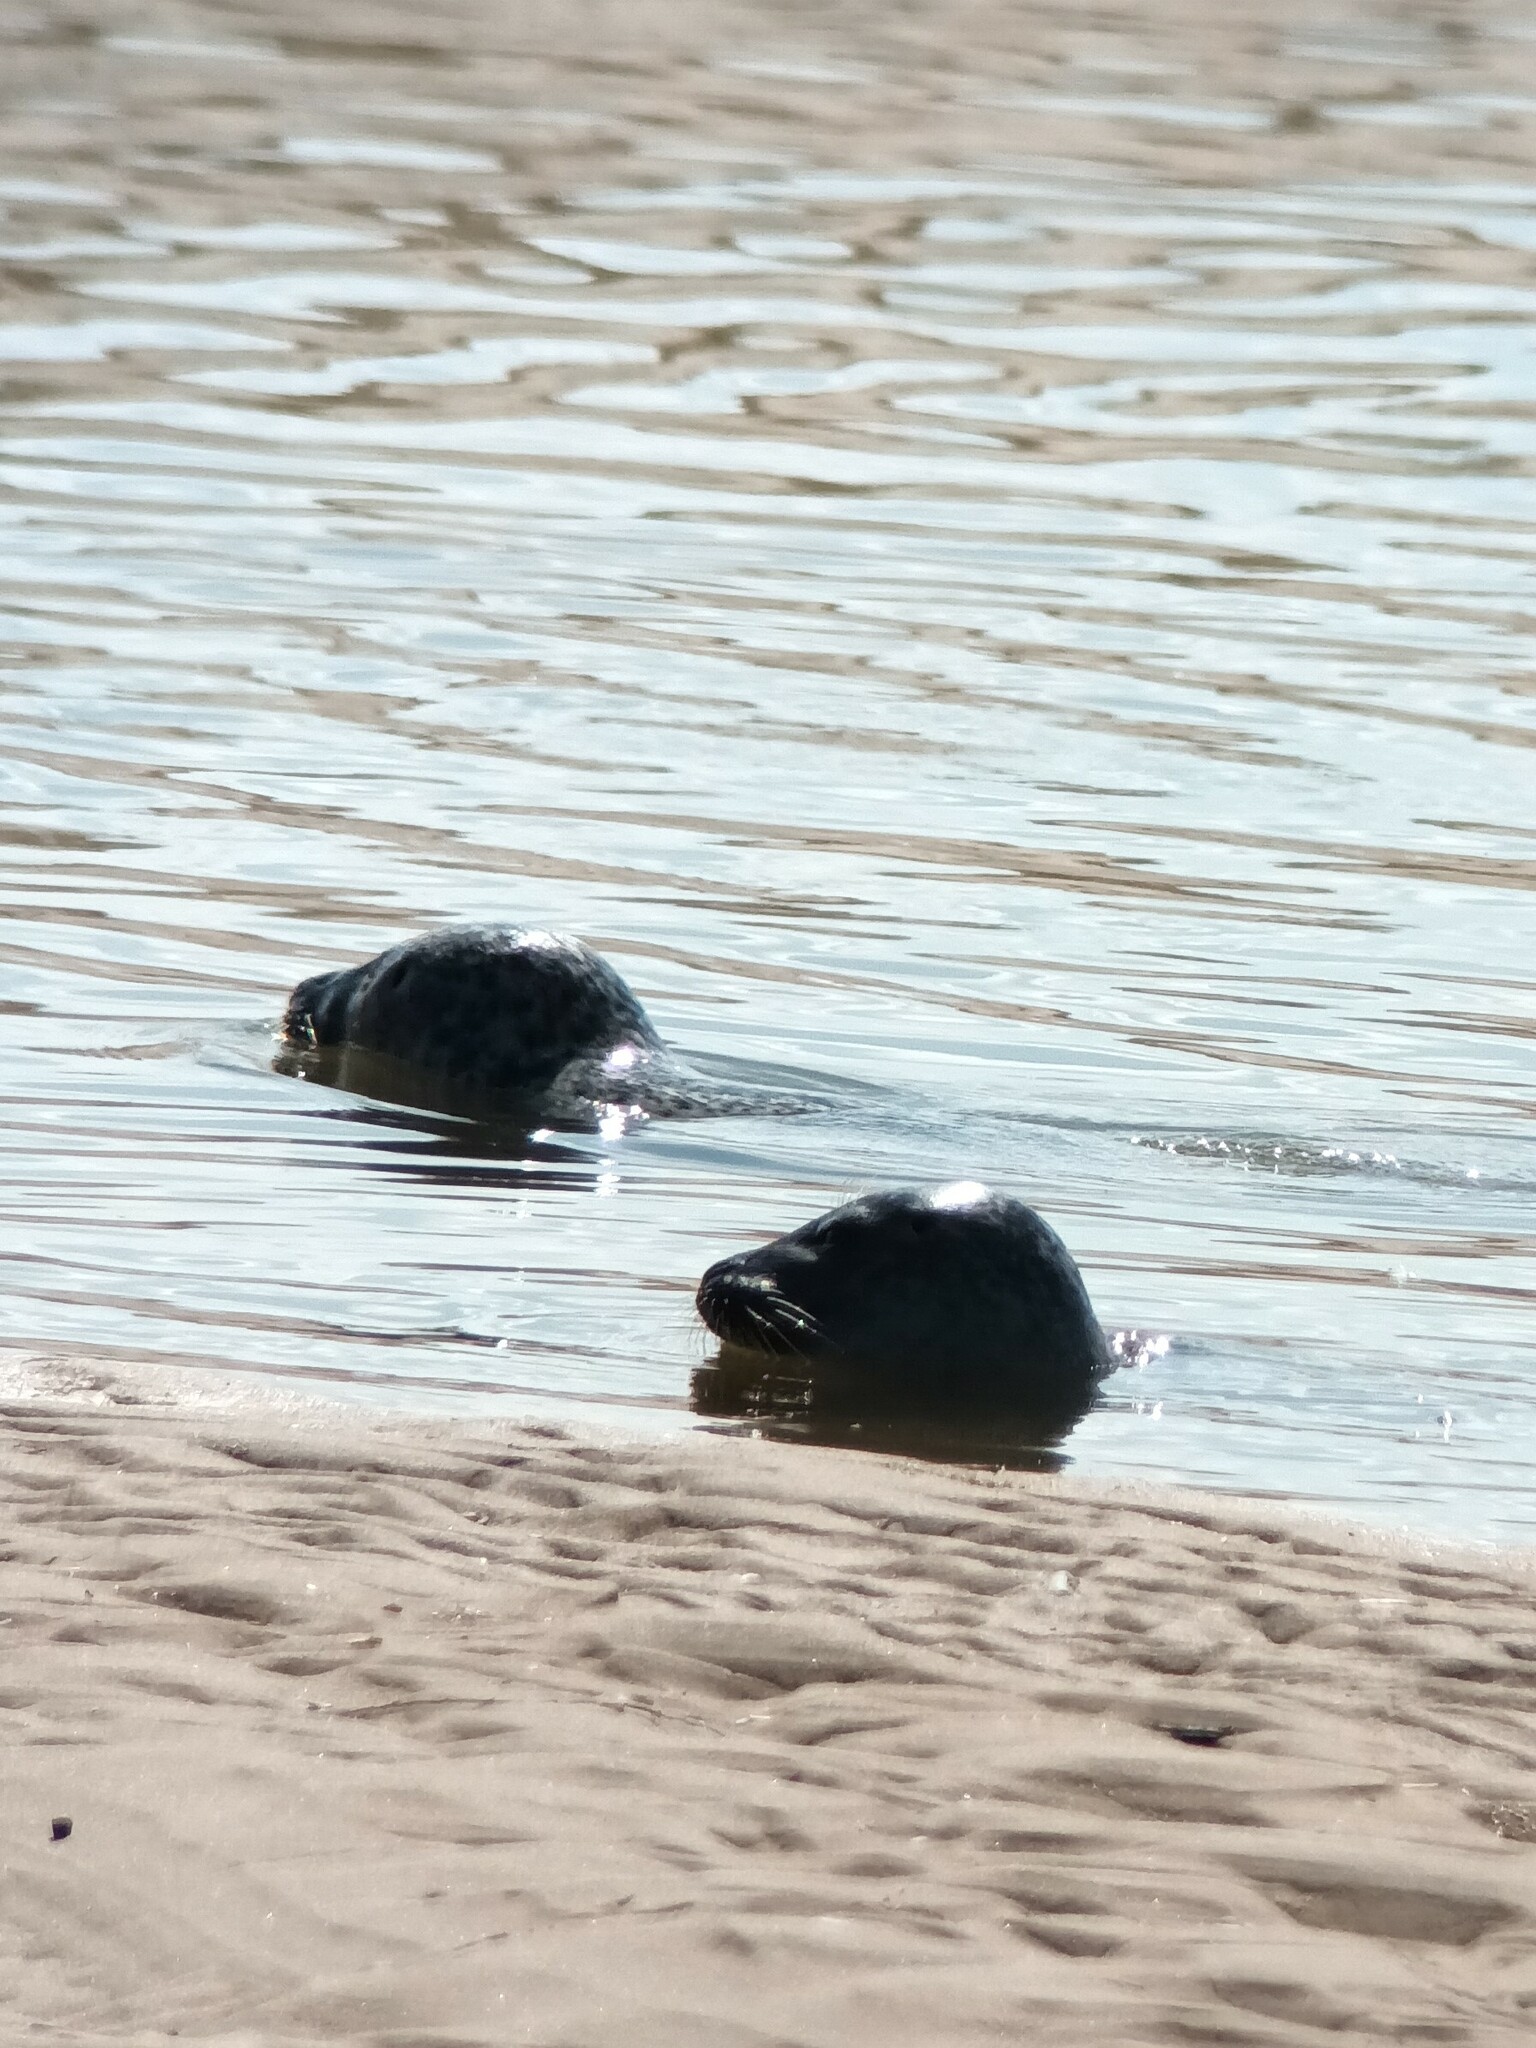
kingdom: Animalia
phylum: Chordata
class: Mammalia
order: Carnivora
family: Phocidae
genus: Phoca
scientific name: Phoca vitulina
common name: Harbor seal
